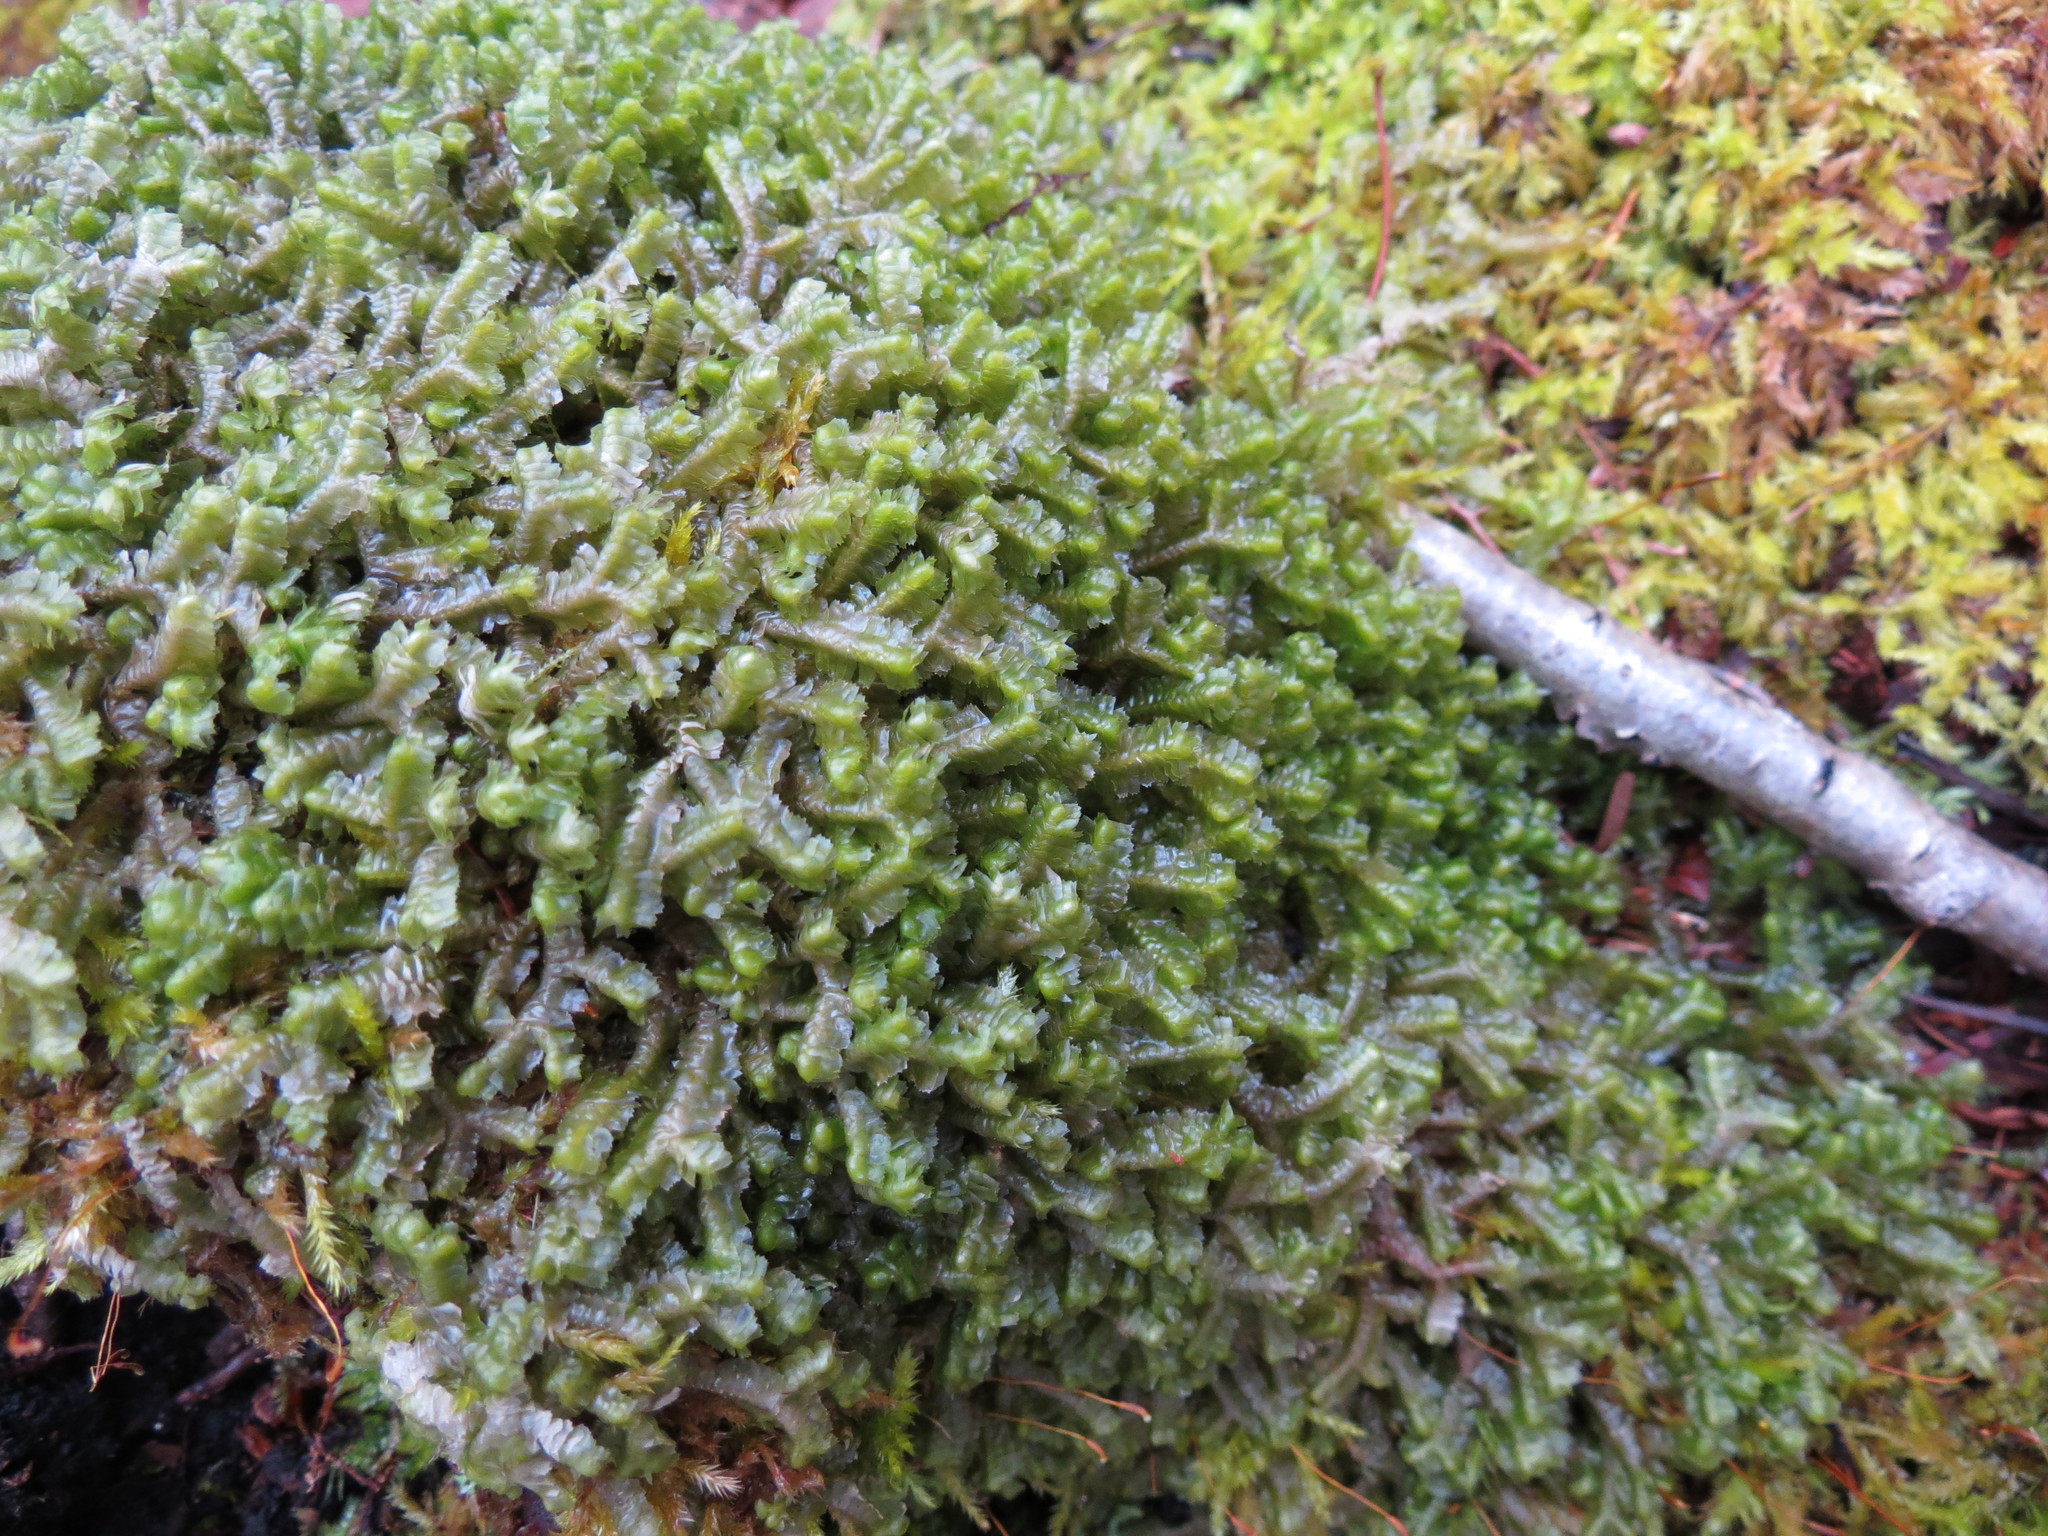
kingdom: Plantae
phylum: Marchantiophyta
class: Jungermanniopsida
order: Jungermanniales
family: Lepidoziaceae
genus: Bazzania
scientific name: Bazzania trilobata
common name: Three-lobed whipwort
